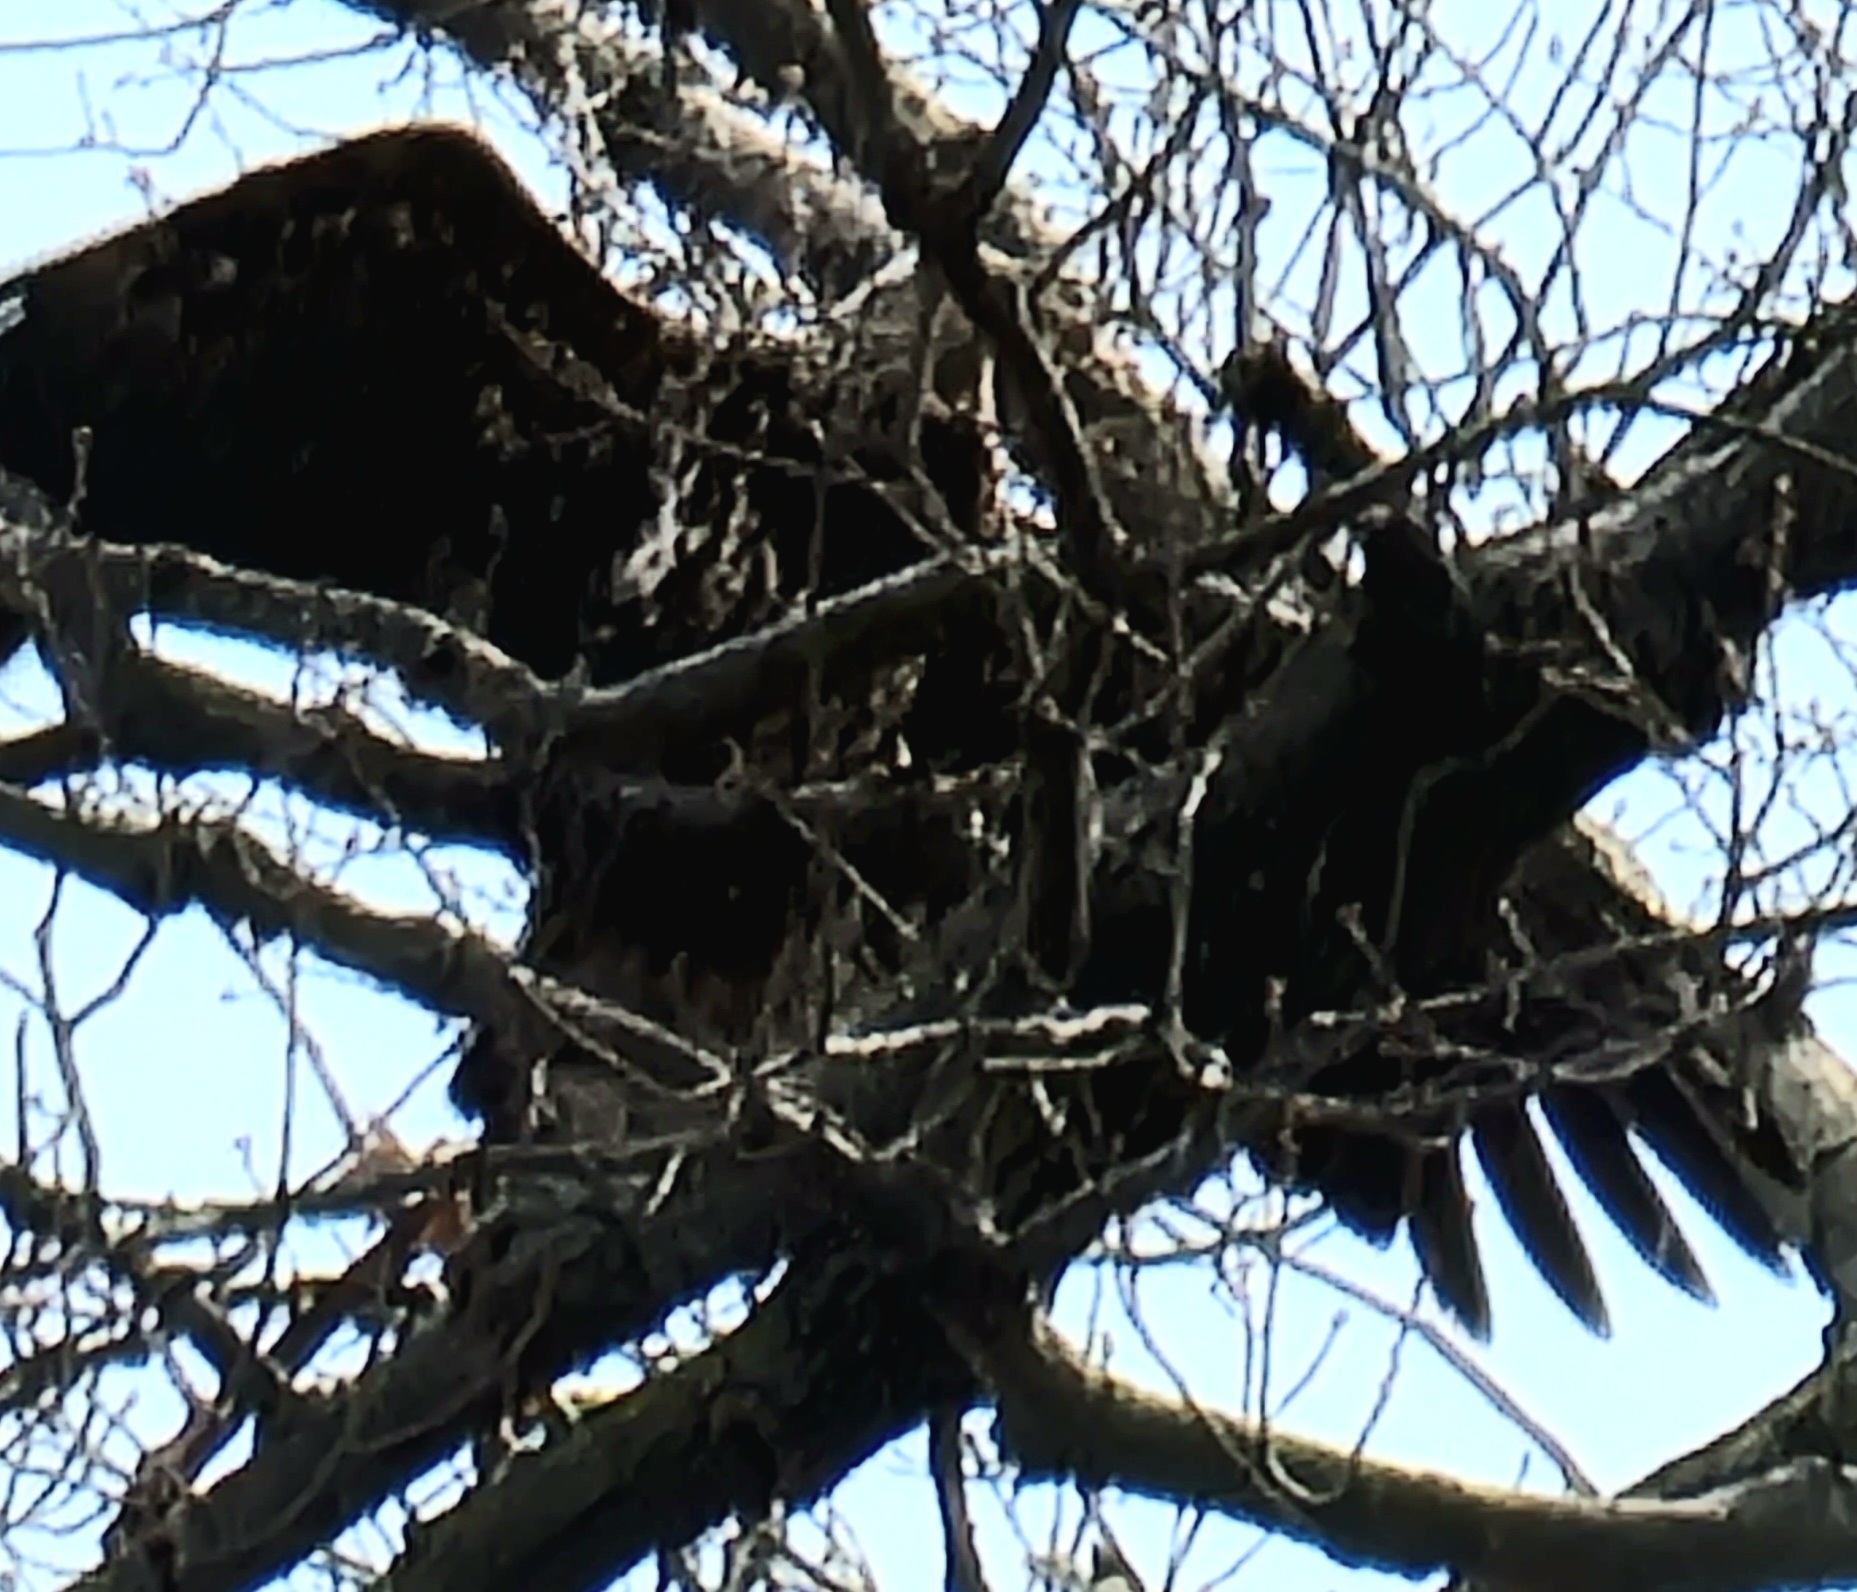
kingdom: Animalia
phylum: Chordata
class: Aves
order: Accipitriformes
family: Accipitridae
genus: Haliaeetus
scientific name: Haliaeetus leucocephalus
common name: Bald eagle
